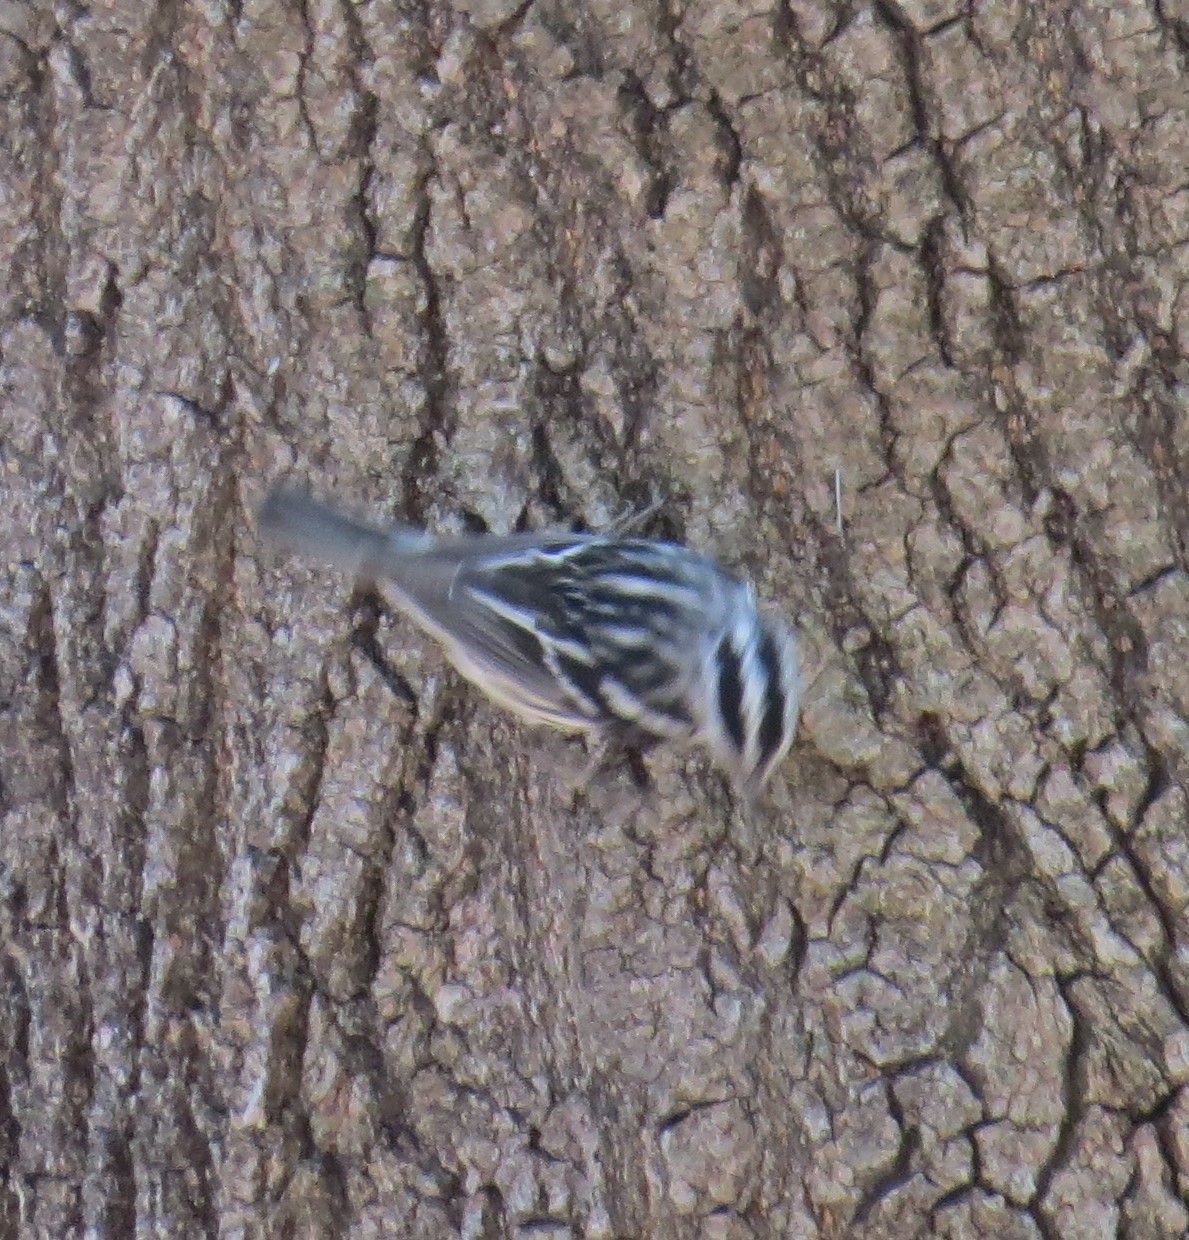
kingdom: Animalia
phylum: Chordata
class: Aves
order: Passeriformes
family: Parulidae
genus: Mniotilta
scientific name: Mniotilta varia
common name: Black-and-white warbler
